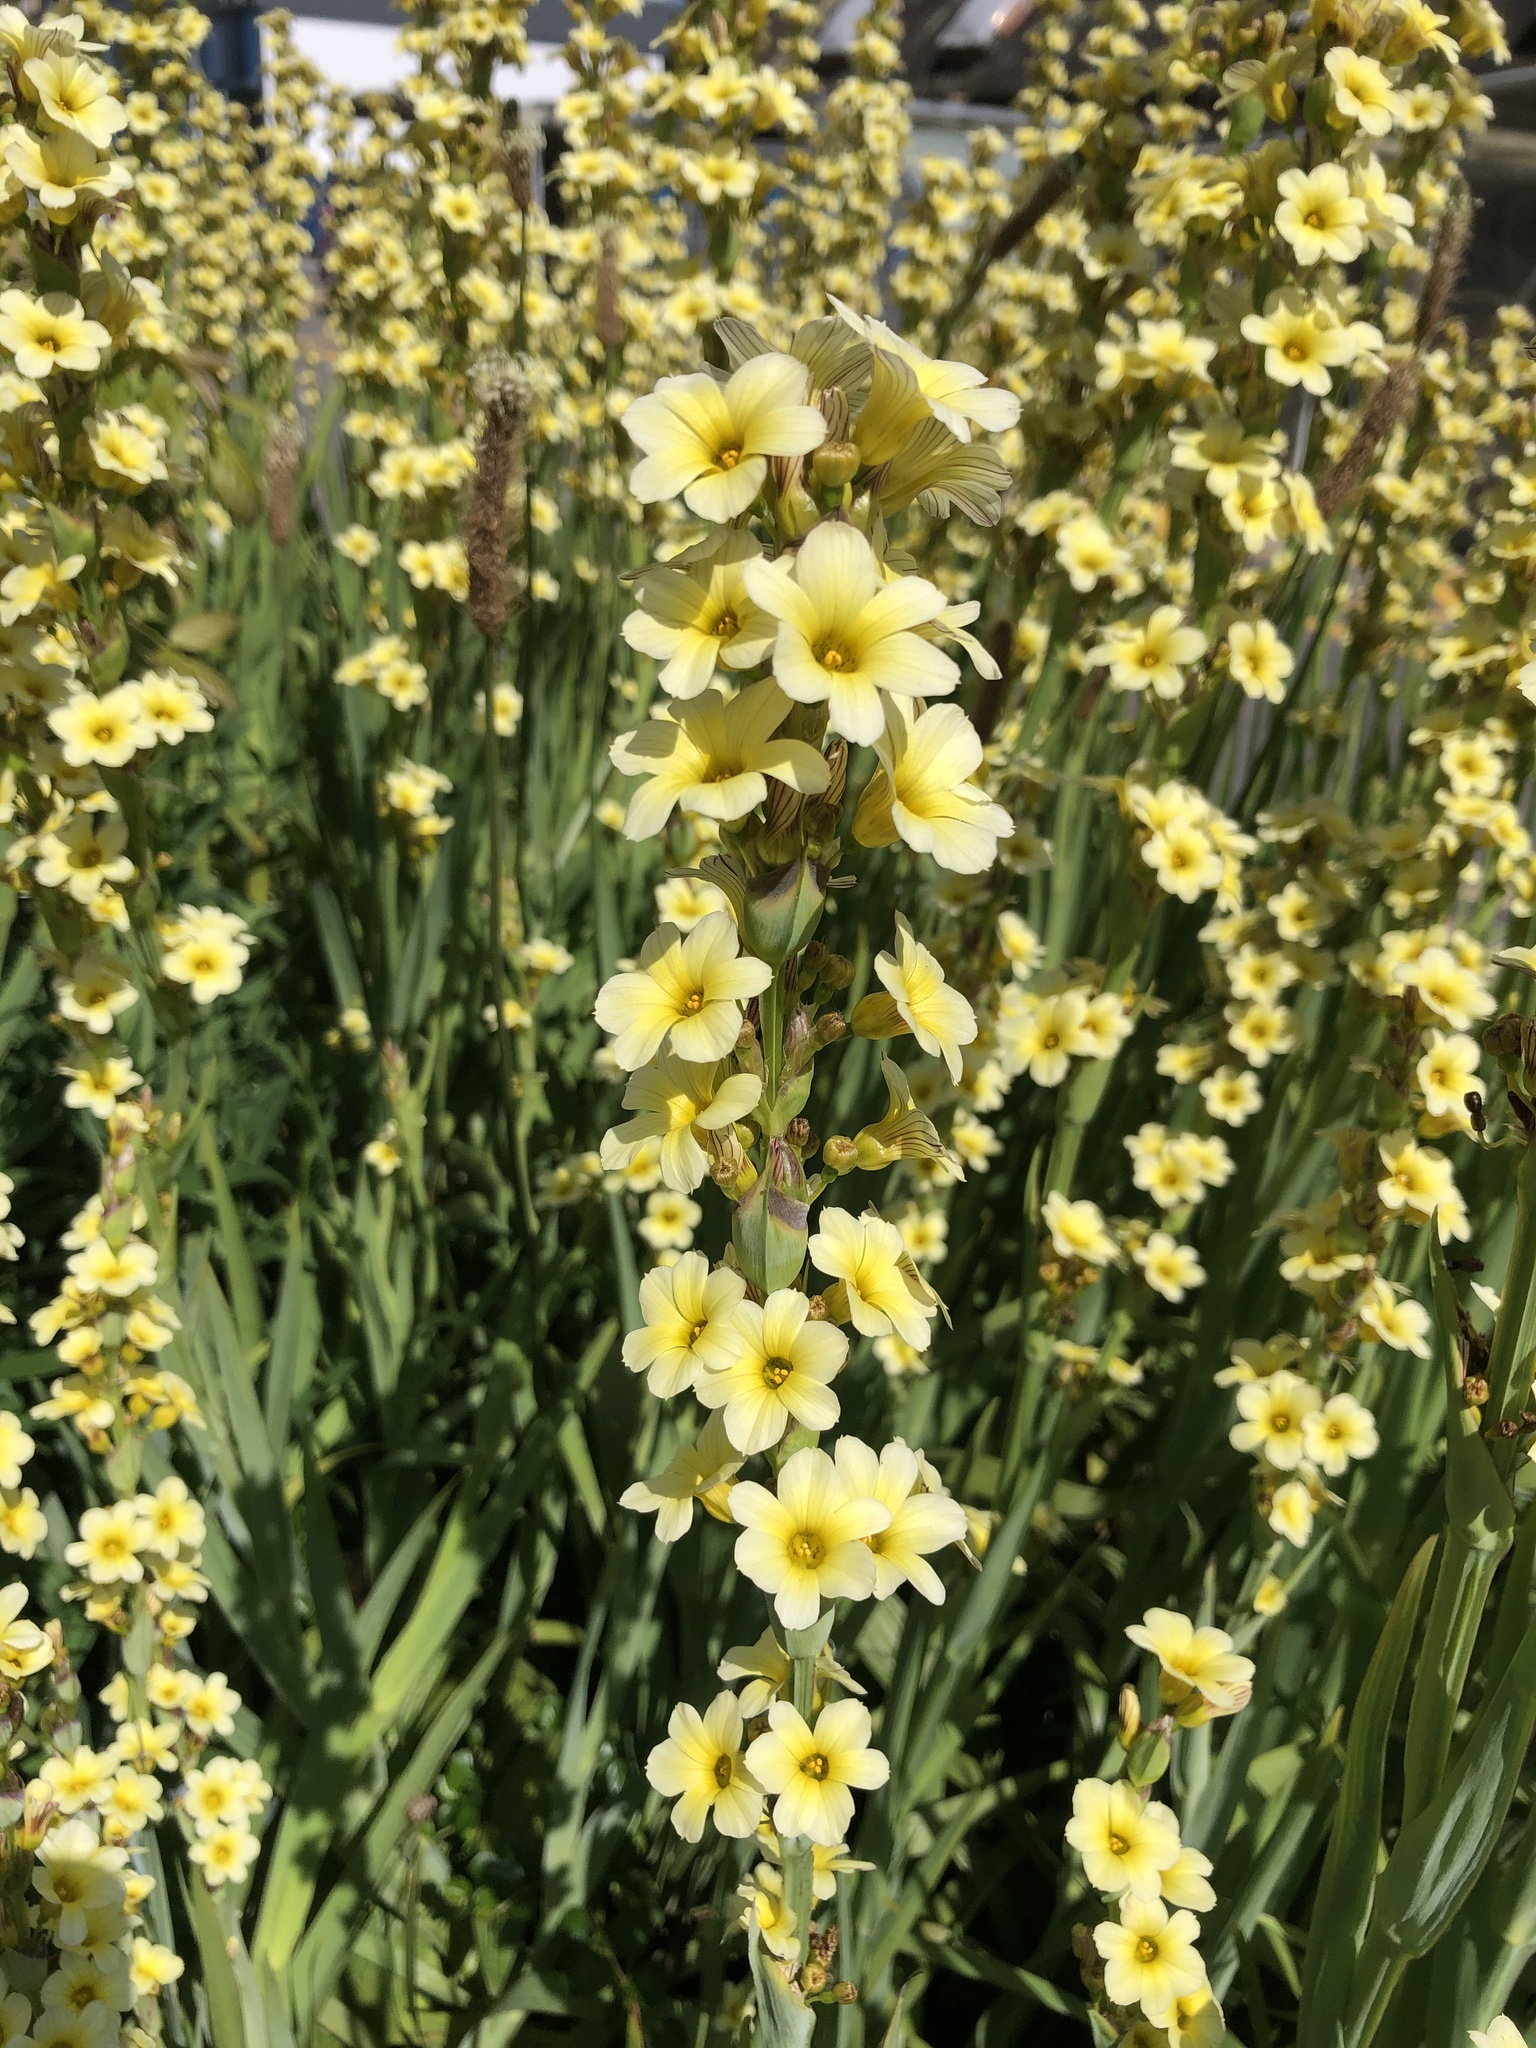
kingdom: Plantae
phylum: Tracheophyta
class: Liliopsida
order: Asparagales
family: Iridaceae
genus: Sisyrinchium
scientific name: Sisyrinchium striatum
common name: Pale yellow-eyed-grass
